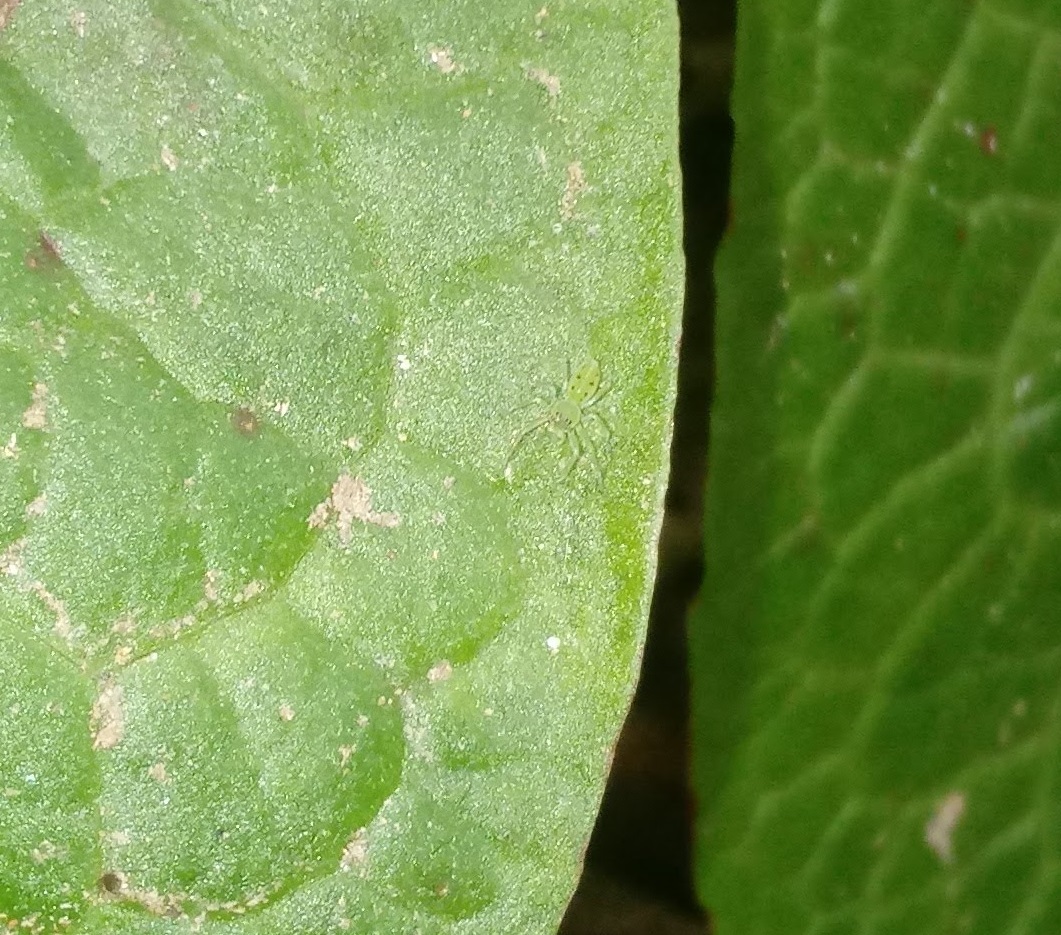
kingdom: Animalia
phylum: Arthropoda
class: Arachnida
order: Araneae
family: Salticidae
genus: Lyssomanes
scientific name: Lyssomanes viridis
